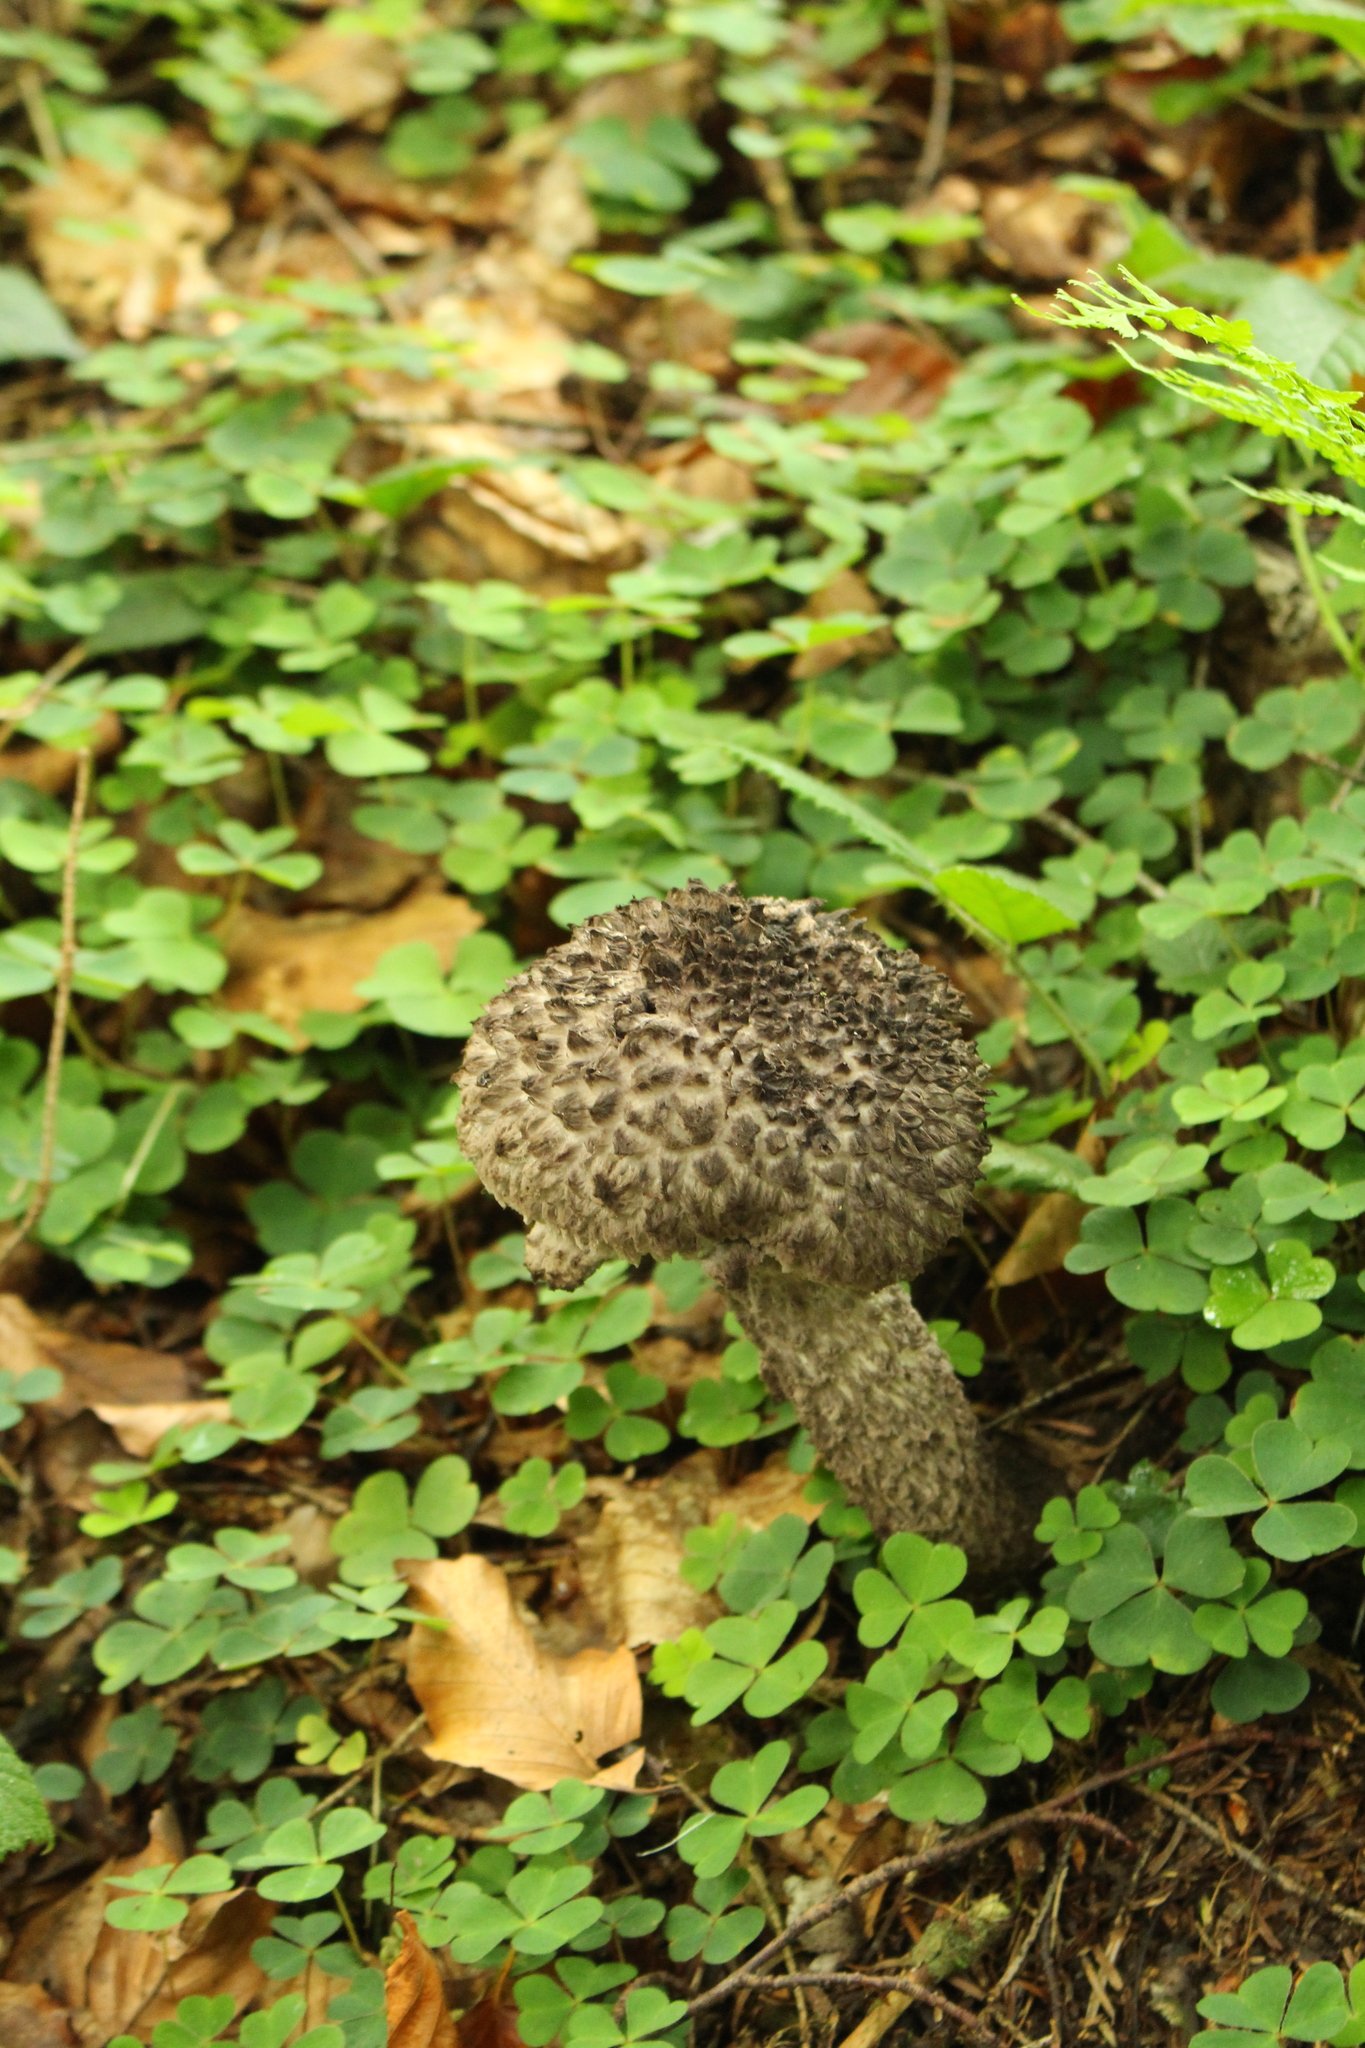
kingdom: Fungi
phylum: Basidiomycota
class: Agaricomycetes
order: Boletales
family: Boletaceae
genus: Strobilomyces
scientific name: Strobilomyces strobilaceus
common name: Old man of the woods
